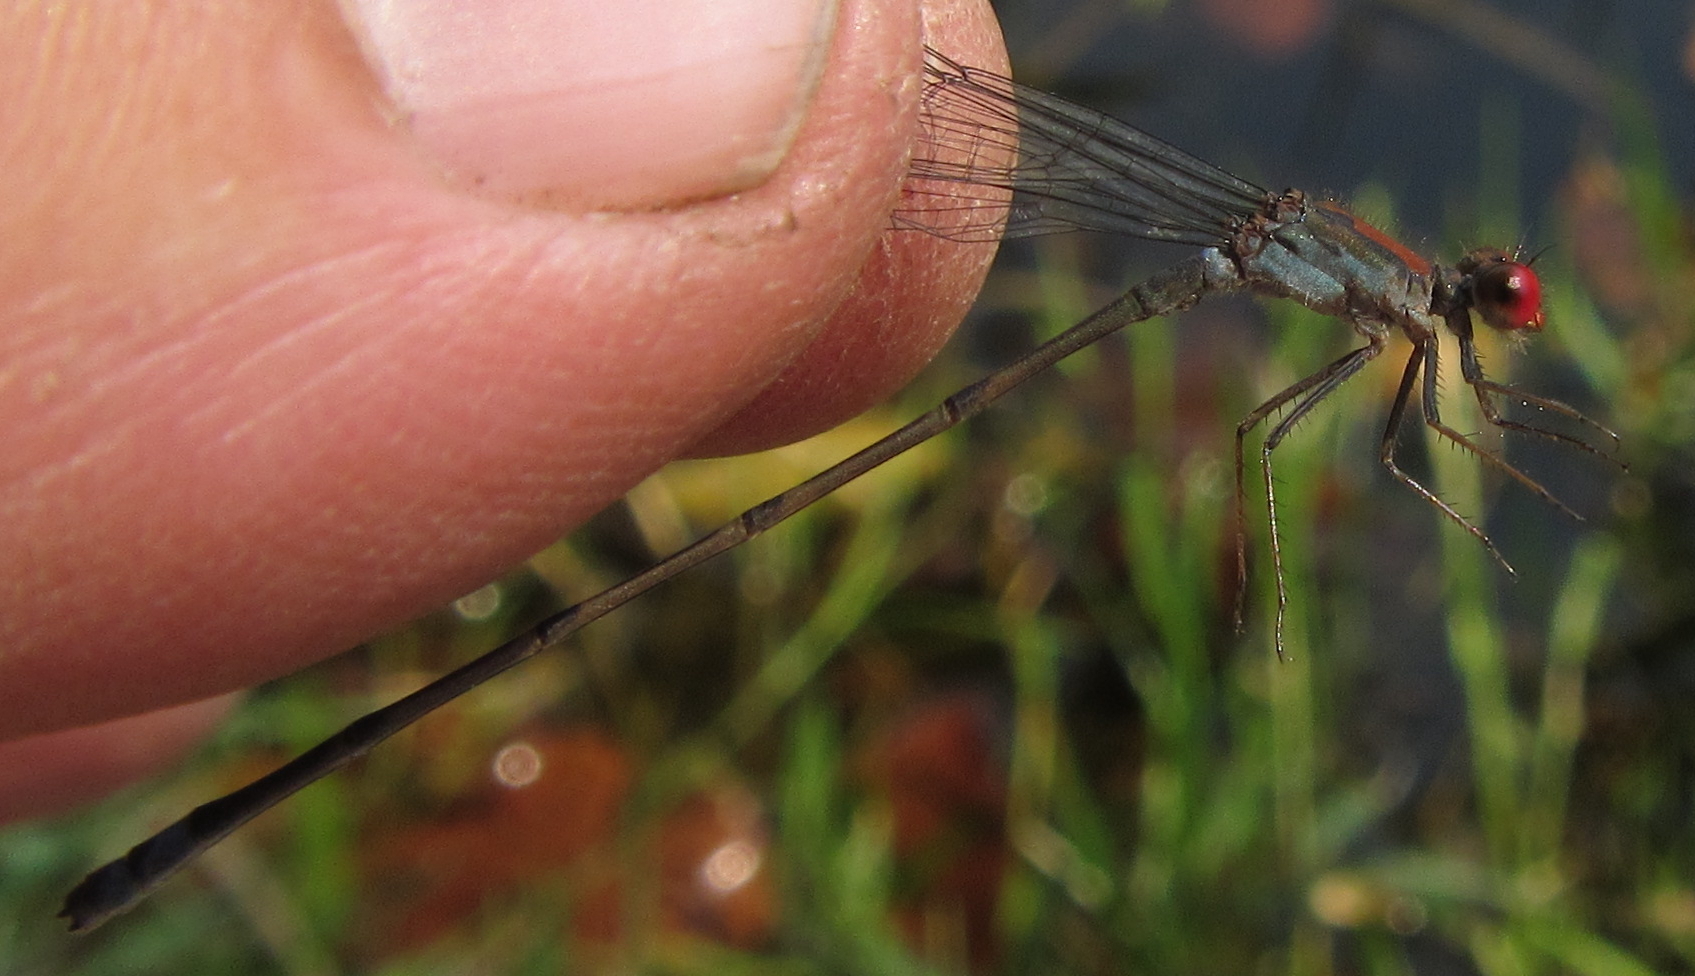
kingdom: Animalia
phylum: Arthropoda
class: Insecta
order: Odonata
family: Coenagrionidae
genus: Pseudagrion
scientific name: Pseudagrion sjoestedti
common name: Variable sprite
